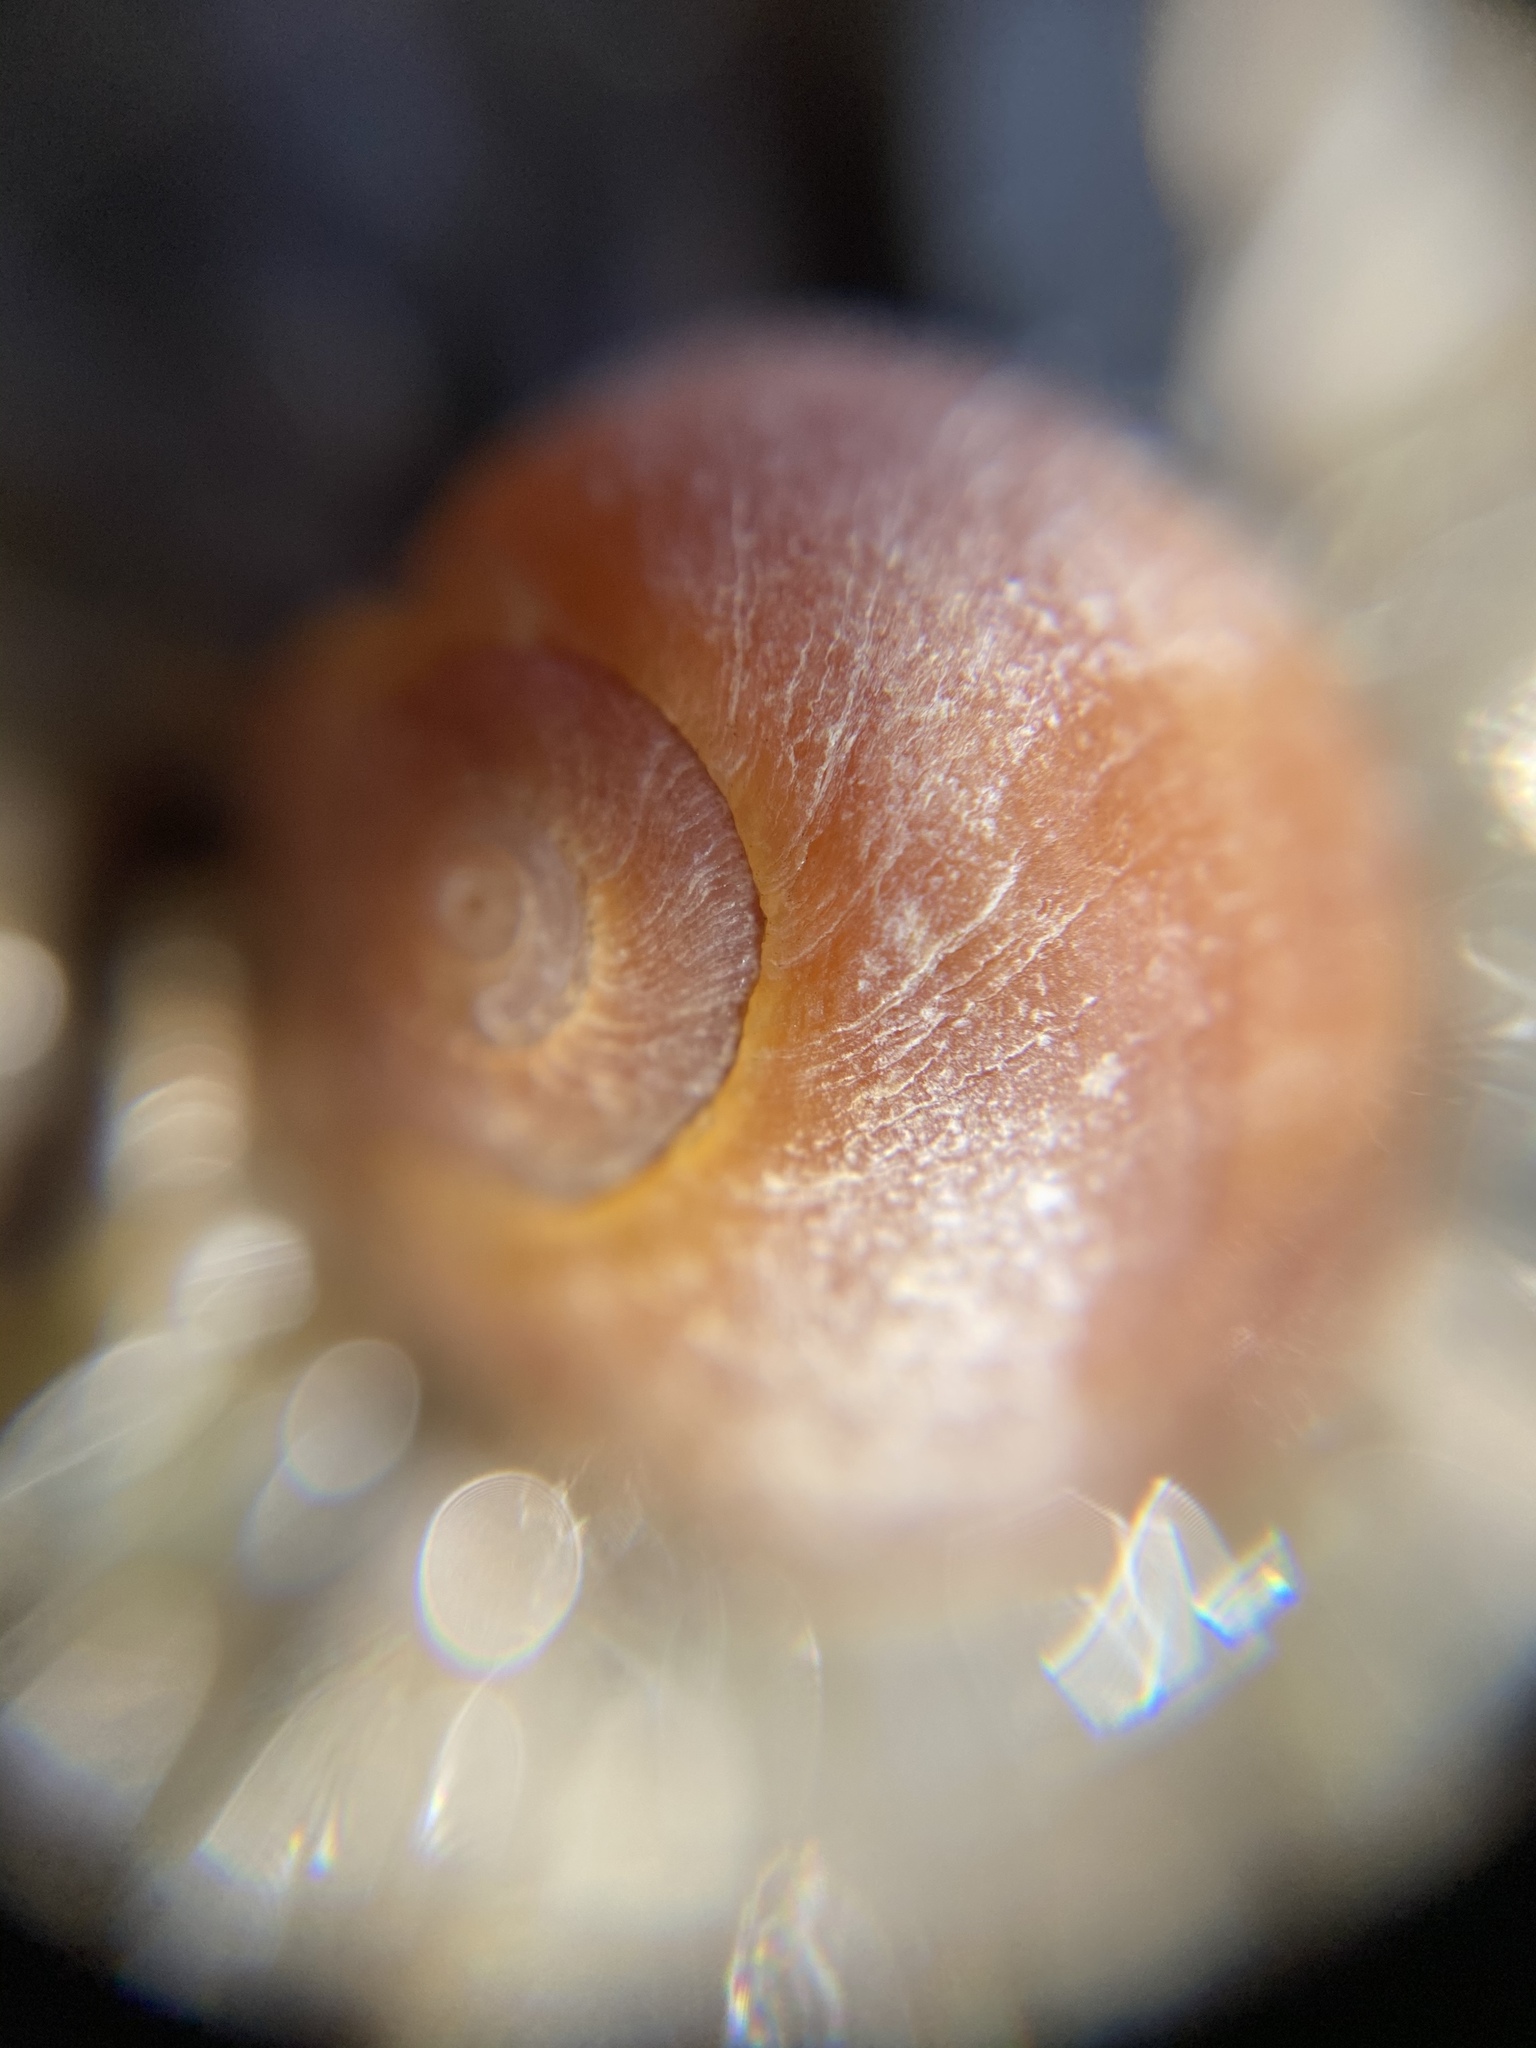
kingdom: Animalia
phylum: Mollusca
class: Gastropoda
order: Littorinimorpha
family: Littorinidae
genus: Littorina
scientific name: Littorina obtusata
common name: Flat periwinkle
